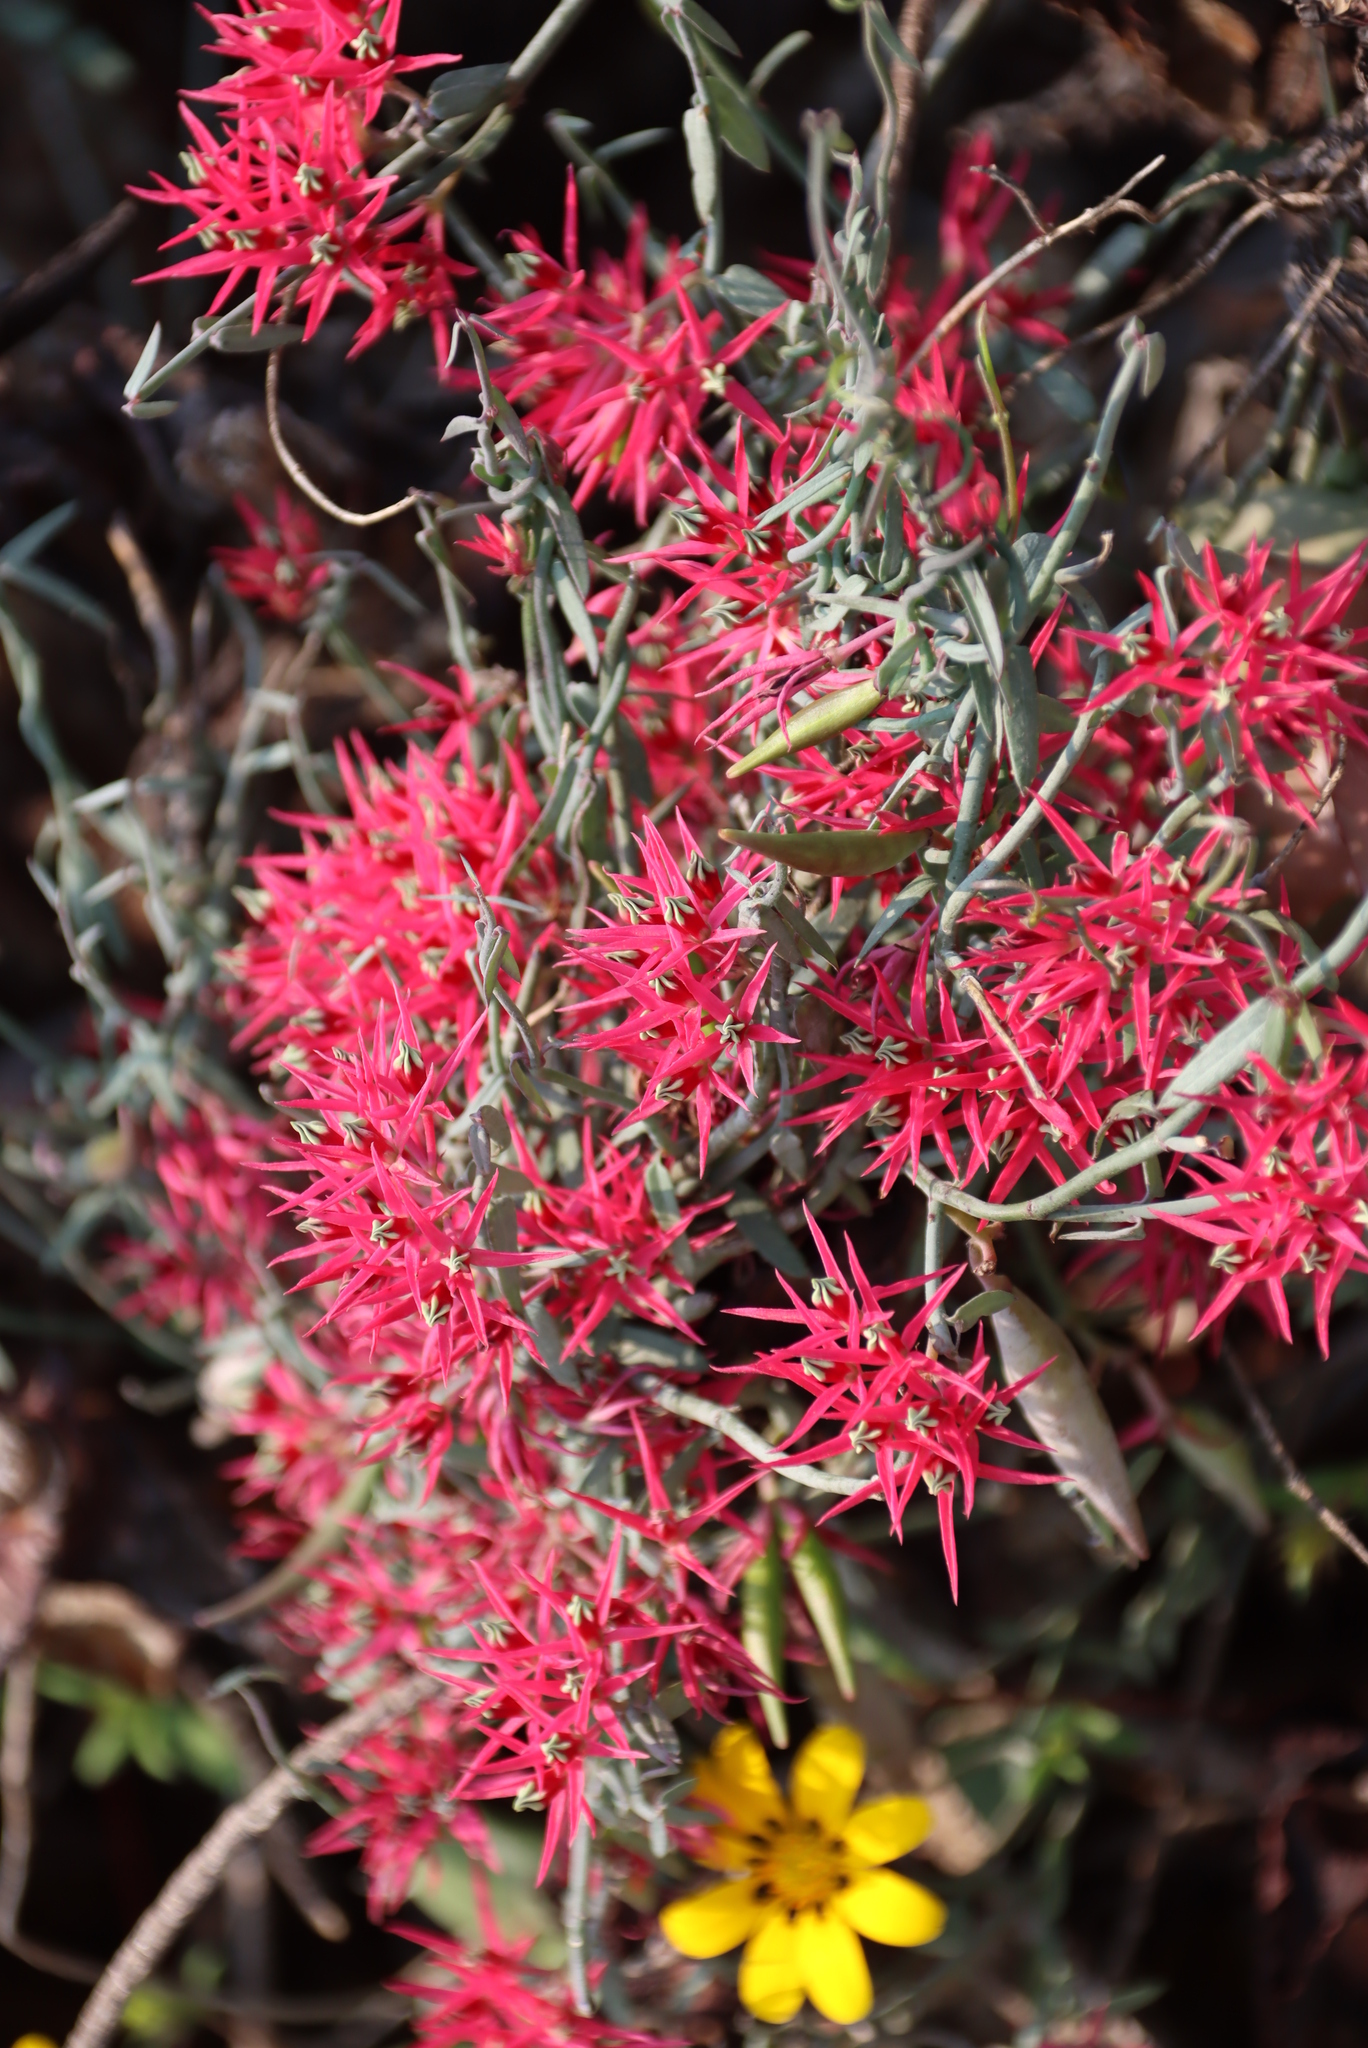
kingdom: Plantae
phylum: Tracheophyta
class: Magnoliopsida
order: Gentianales
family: Apocynaceae
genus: Microloma
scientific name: Microloma calycinum
